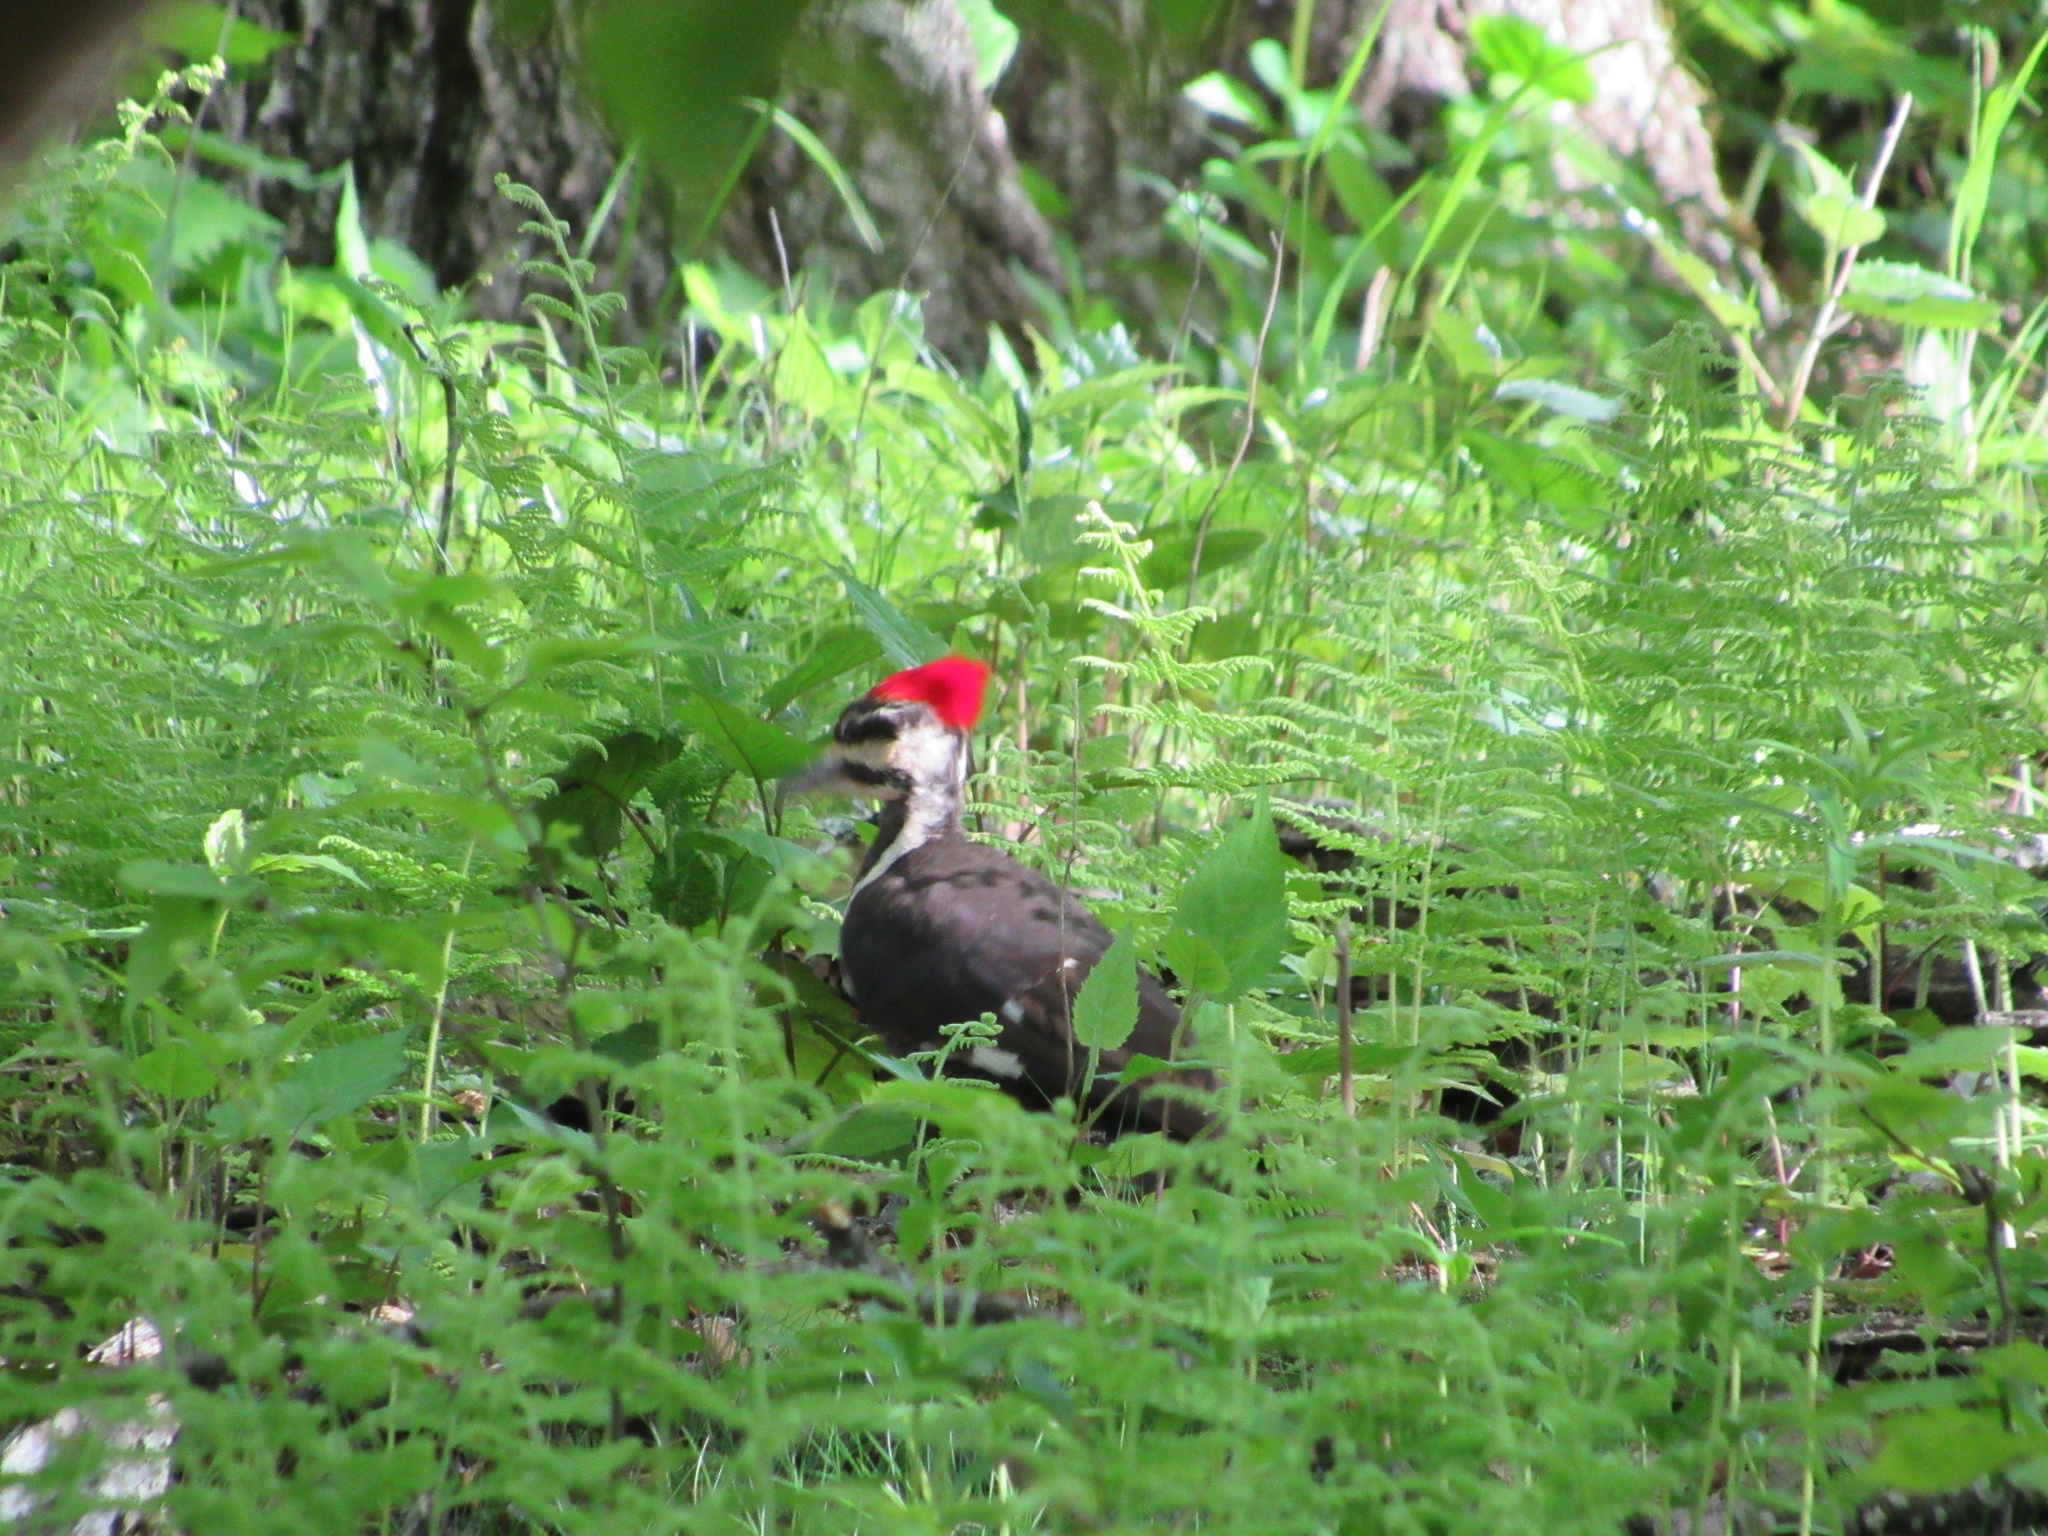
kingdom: Animalia
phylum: Chordata
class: Aves
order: Piciformes
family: Picidae
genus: Dryocopus
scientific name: Dryocopus pileatus
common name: Pileated woodpecker
